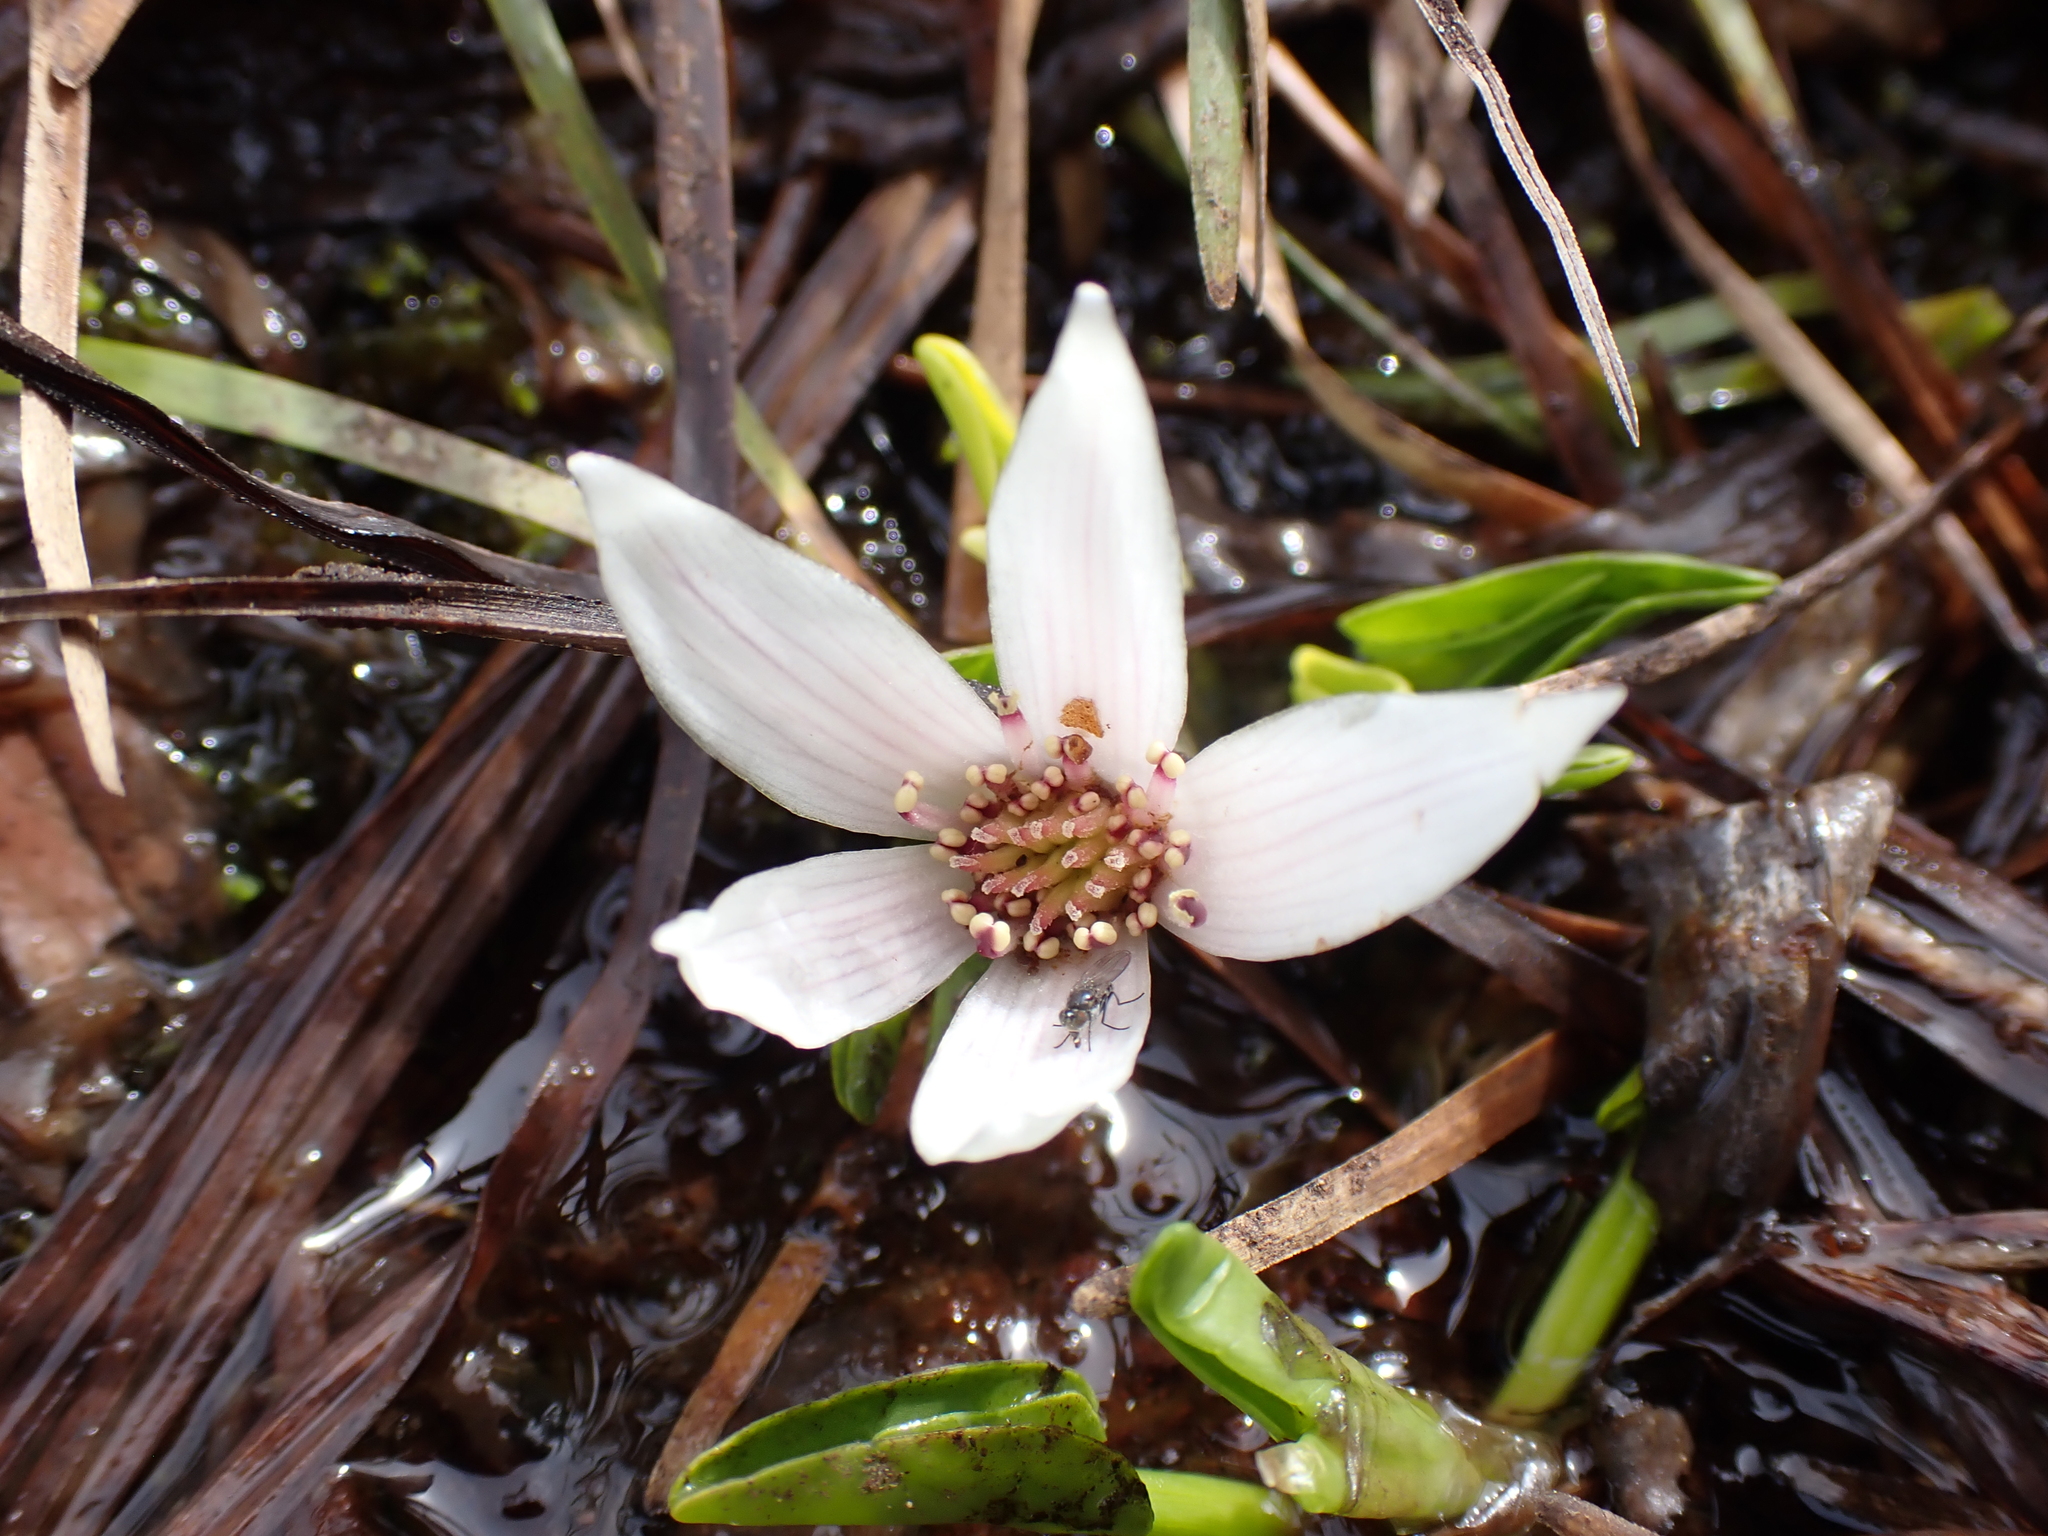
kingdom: Plantae
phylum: Tracheophyta
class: Magnoliopsida
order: Ranunculales
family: Ranunculaceae
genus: Caltha
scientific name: Caltha introloba
